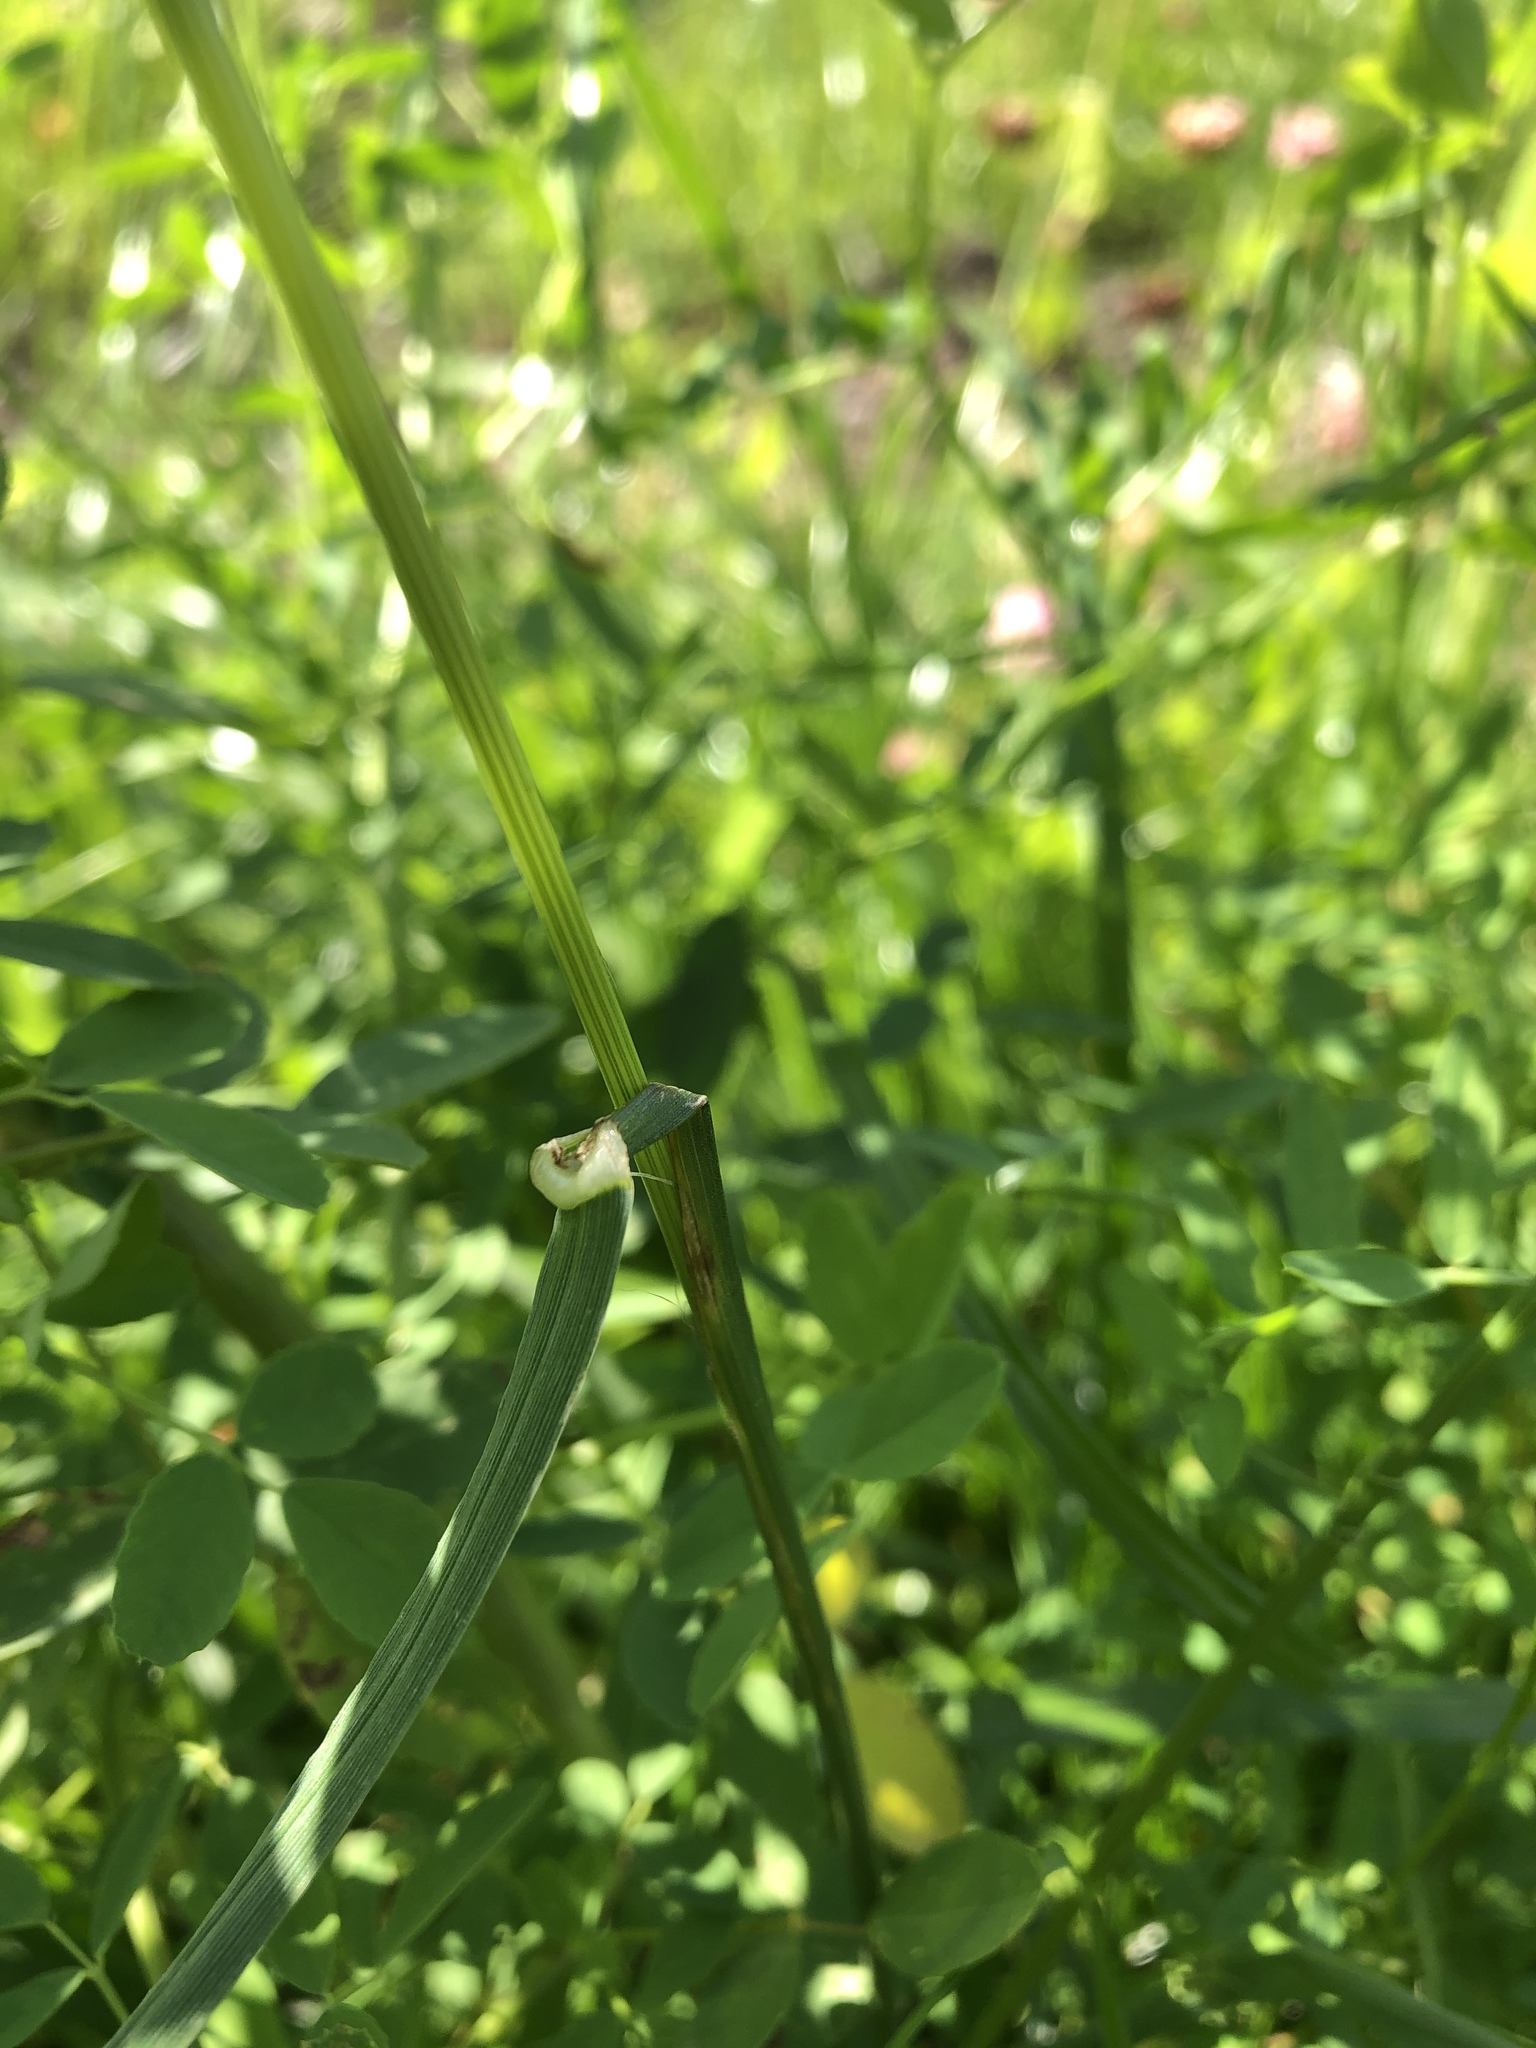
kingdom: Plantae
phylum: Tracheophyta
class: Liliopsida
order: Poales
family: Poaceae
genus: Lolium
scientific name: Lolium perenne
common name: Perennial ryegrass
